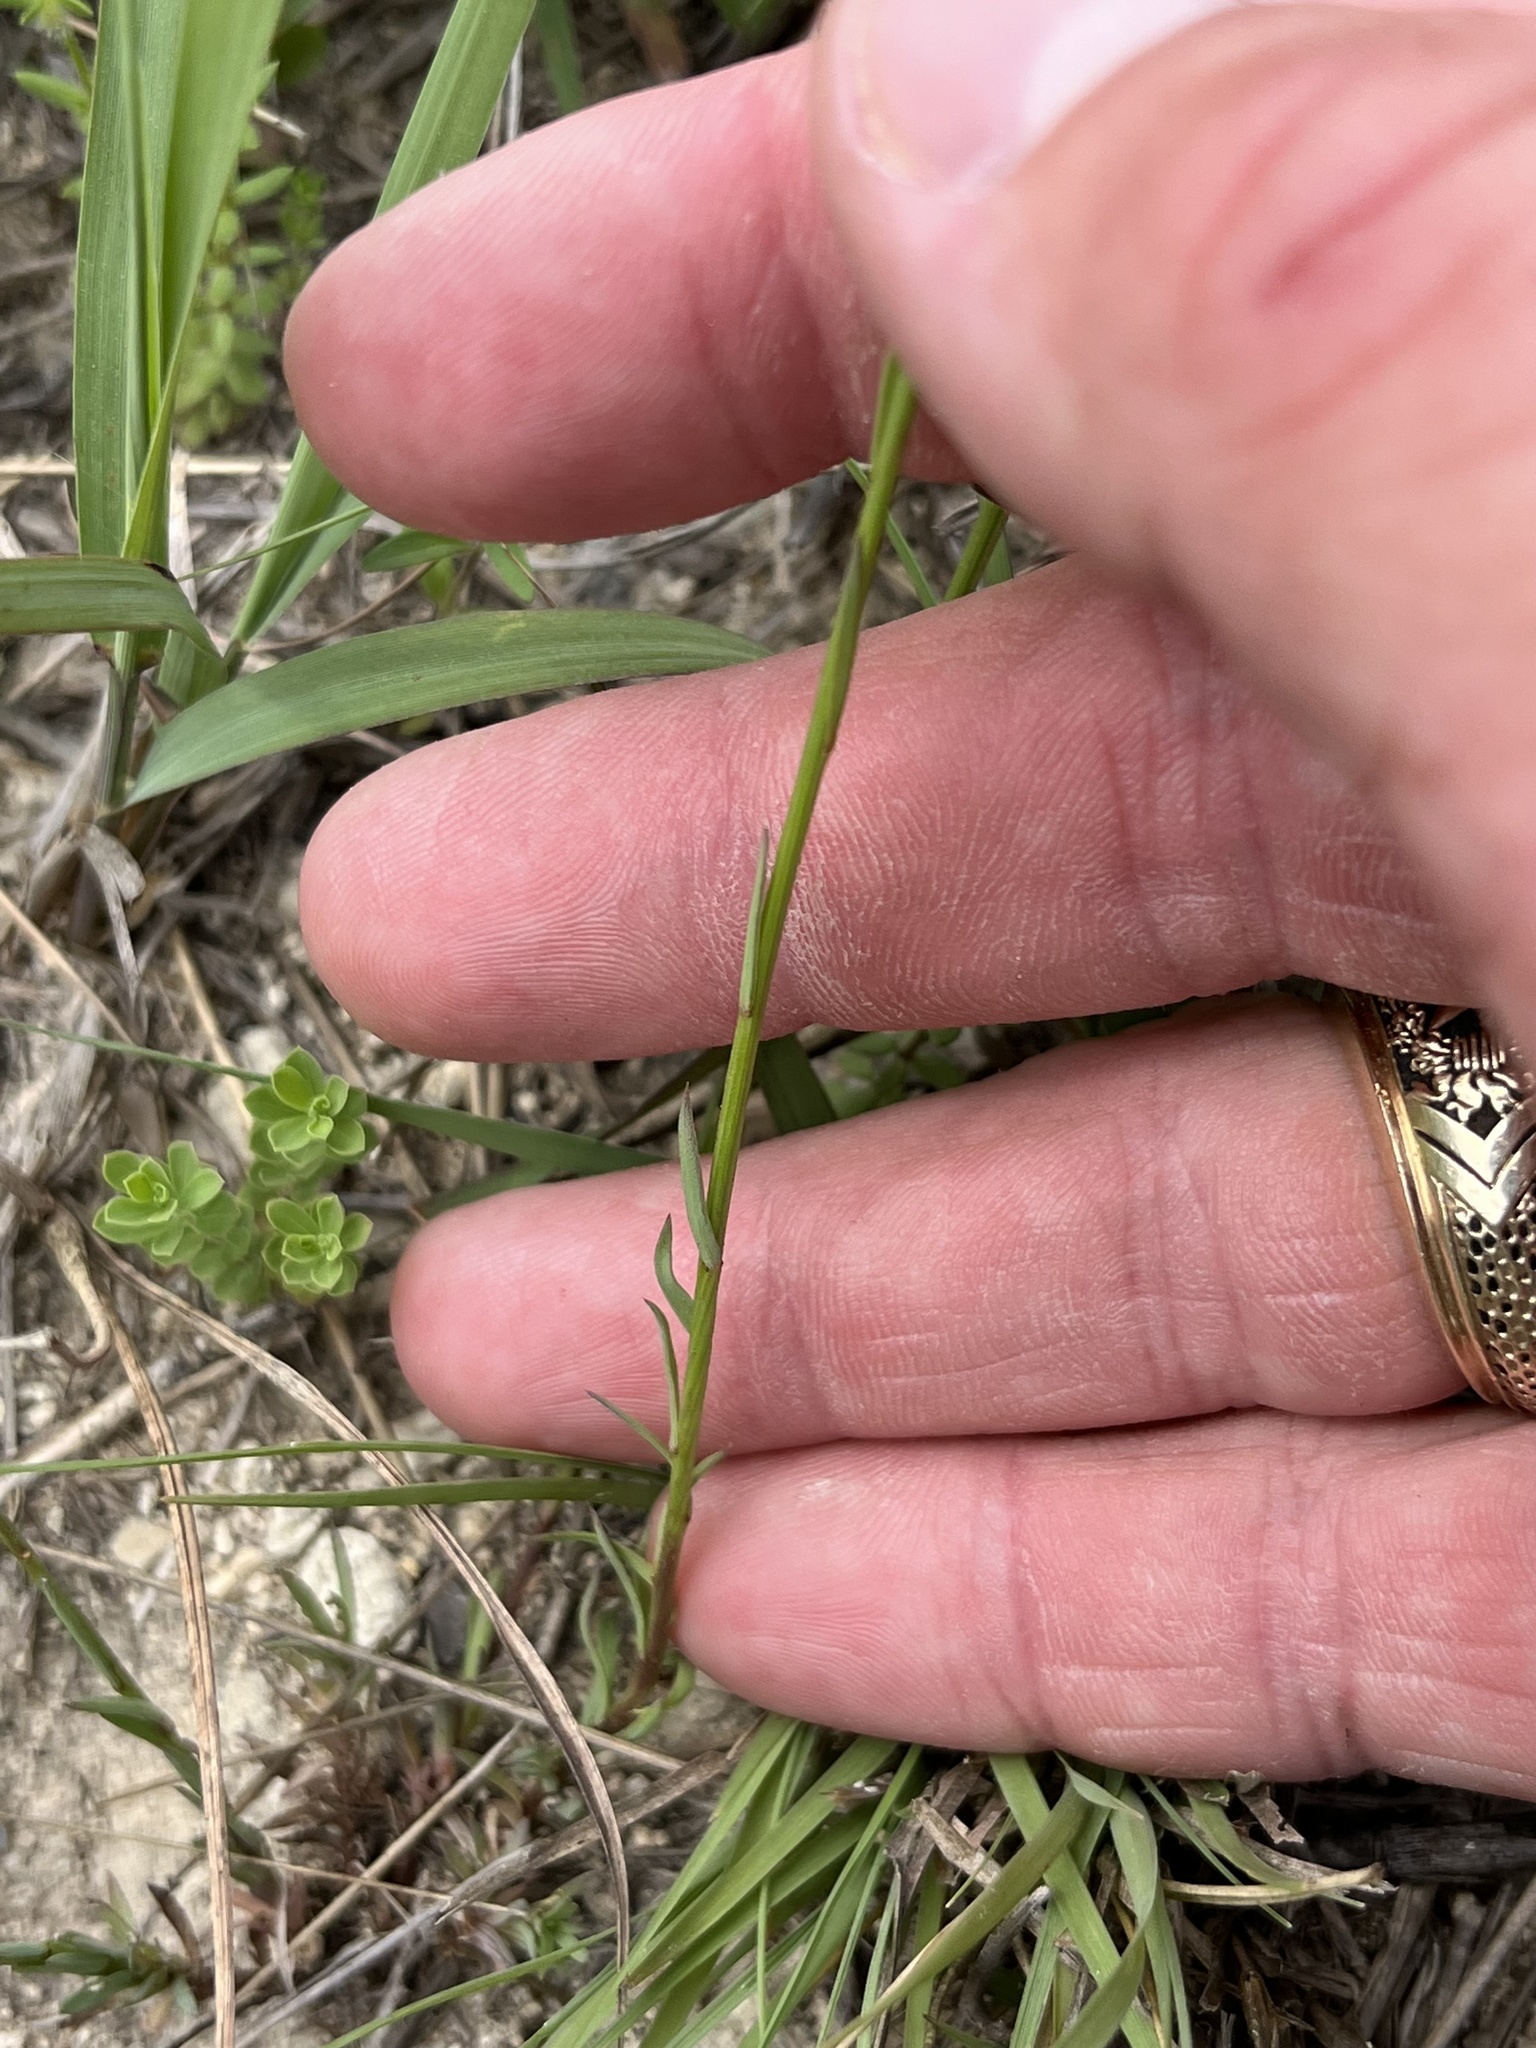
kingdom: Plantae
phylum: Tracheophyta
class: Magnoliopsida
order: Malpighiales
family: Linaceae
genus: Linum
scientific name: Linum rupestre
